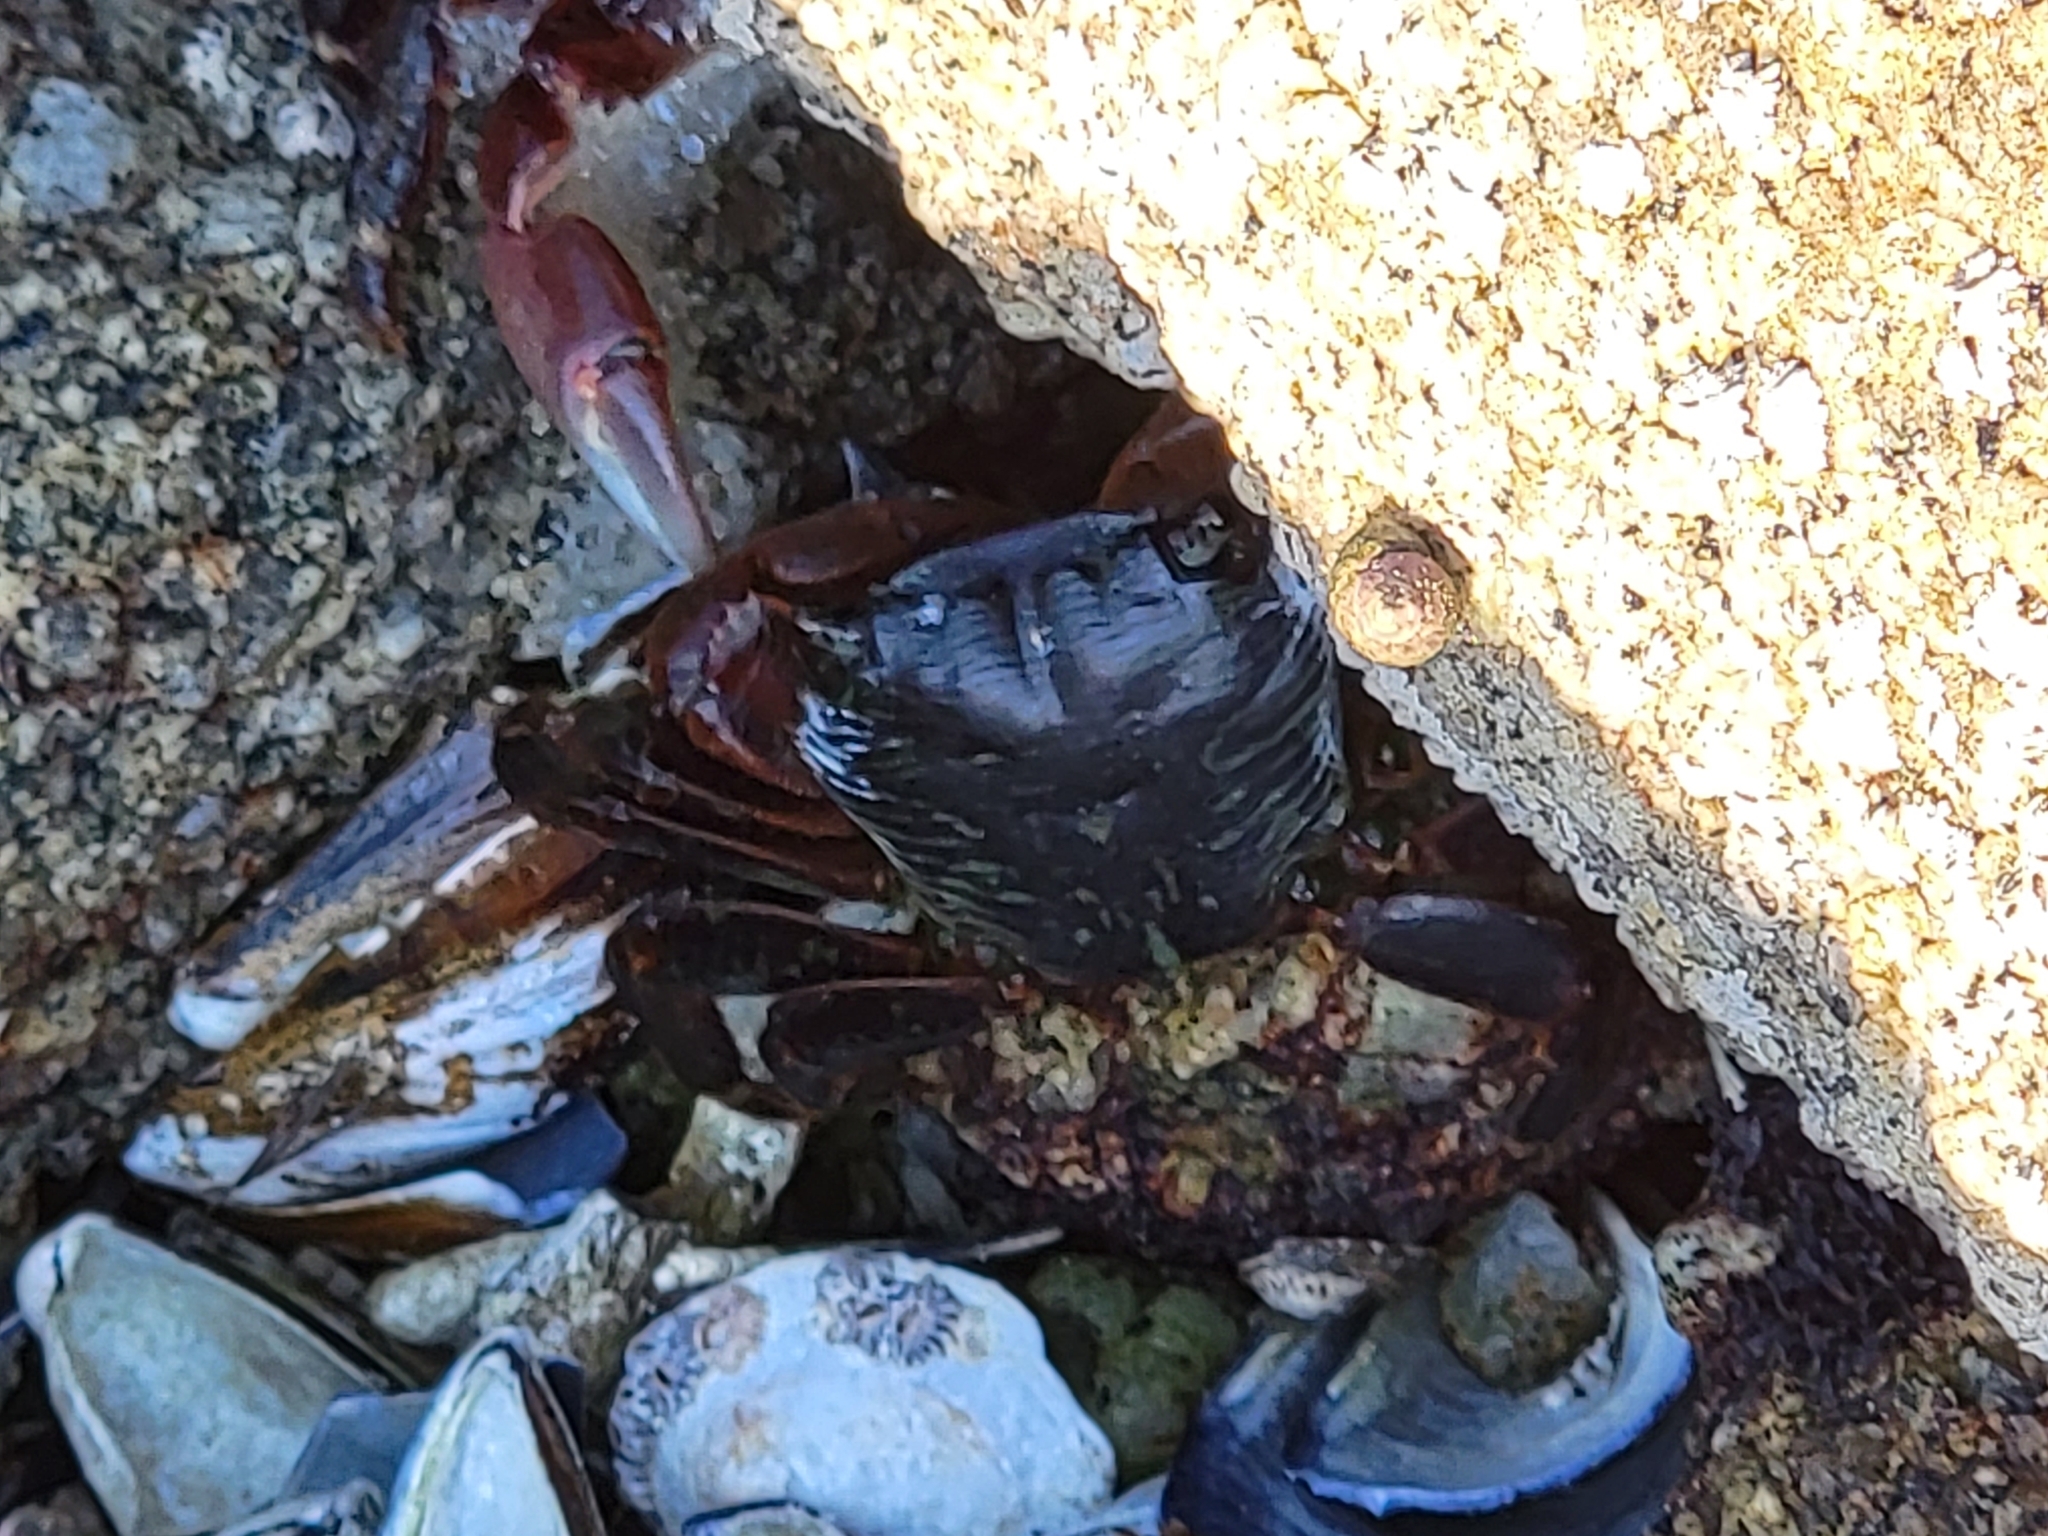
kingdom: Animalia
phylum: Arthropoda
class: Malacostraca
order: Decapoda
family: Grapsidae
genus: Pachygrapsus
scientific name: Pachygrapsus crassipes
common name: Striped shore crab
